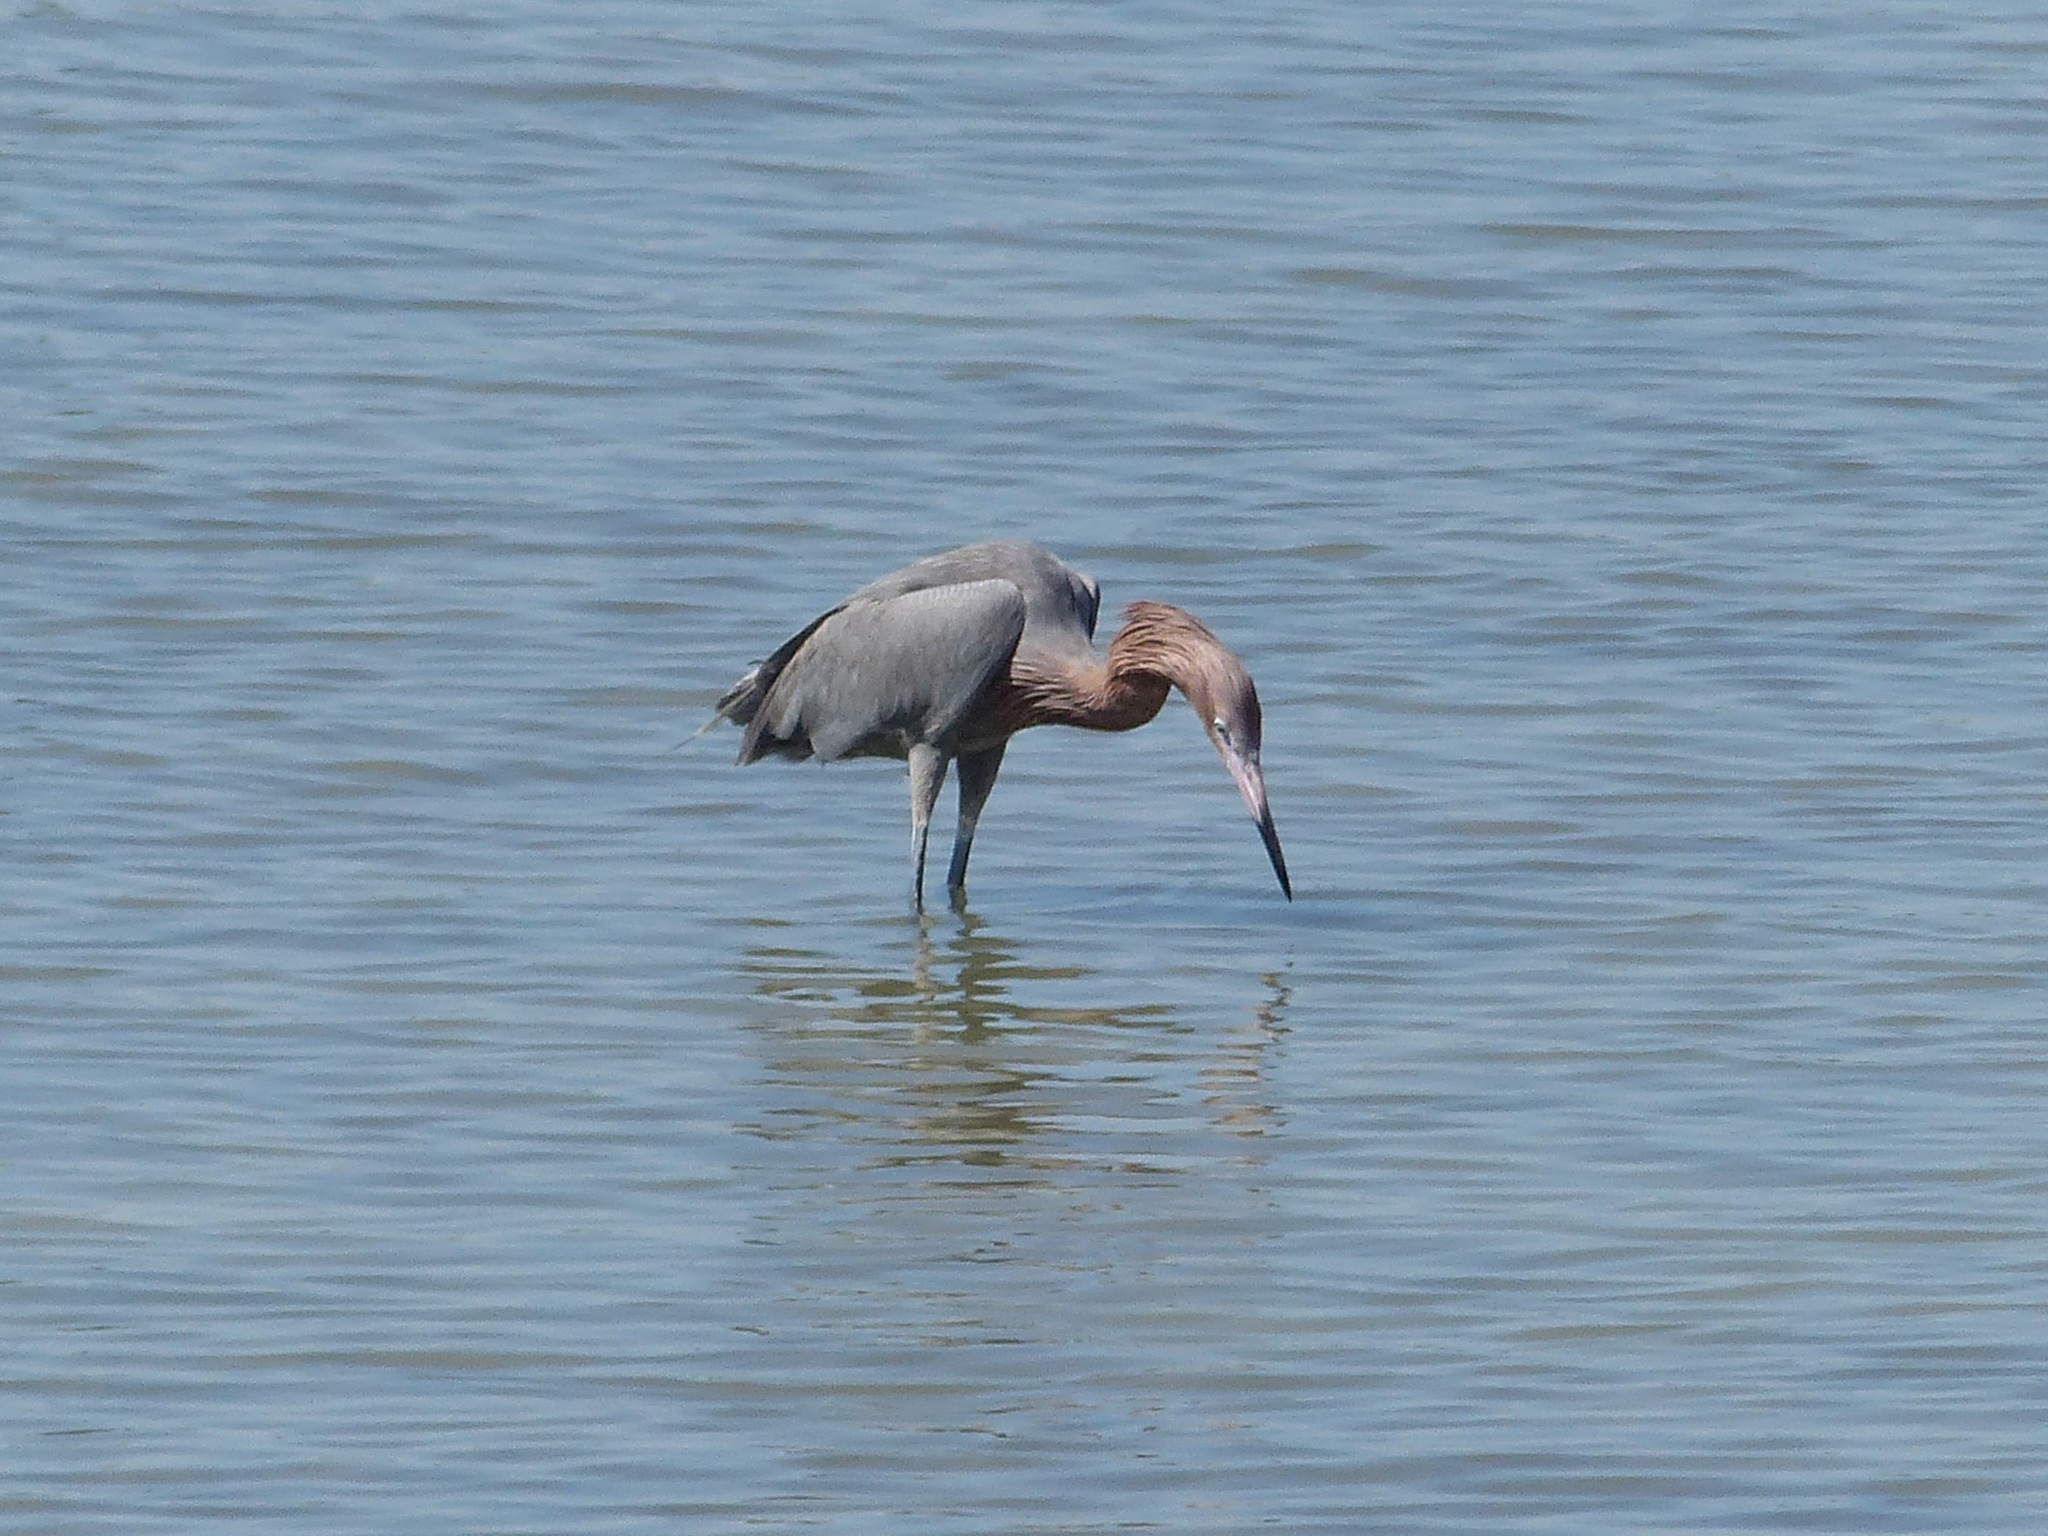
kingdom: Animalia
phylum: Chordata
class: Aves
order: Pelecaniformes
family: Ardeidae
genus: Egretta
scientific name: Egretta rufescens
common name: Reddish egret
